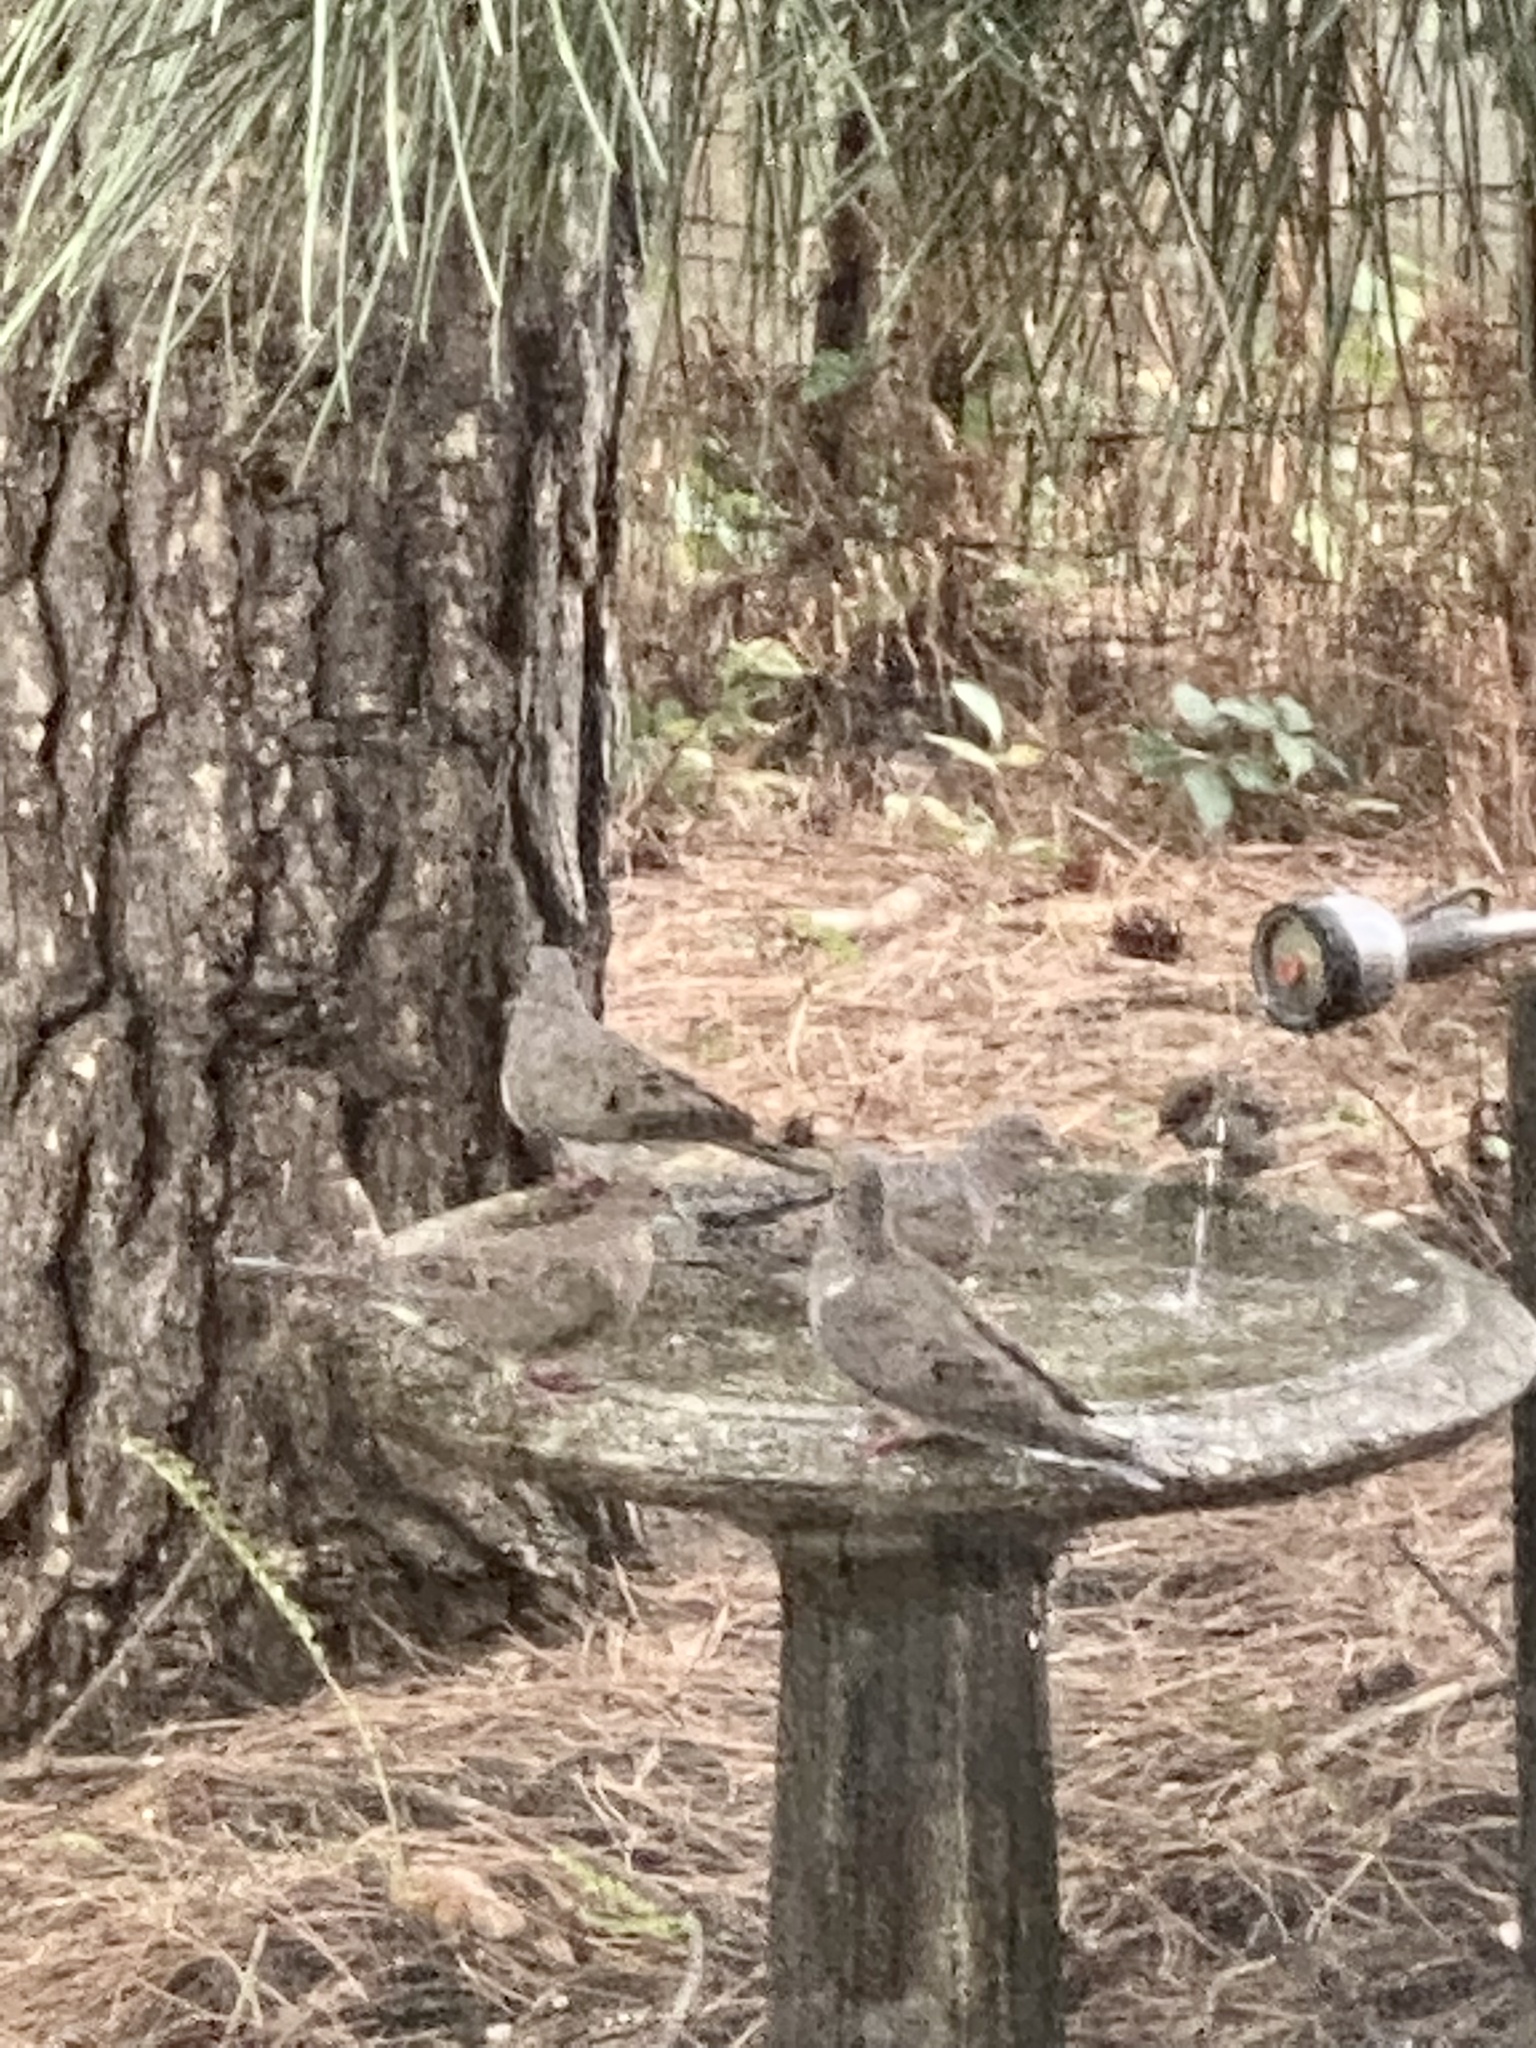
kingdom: Animalia
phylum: Chordata
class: Aves
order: Columbiformes
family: Columbidae
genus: Zenaida
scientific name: Zenaida macroura
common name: Mourning dove
